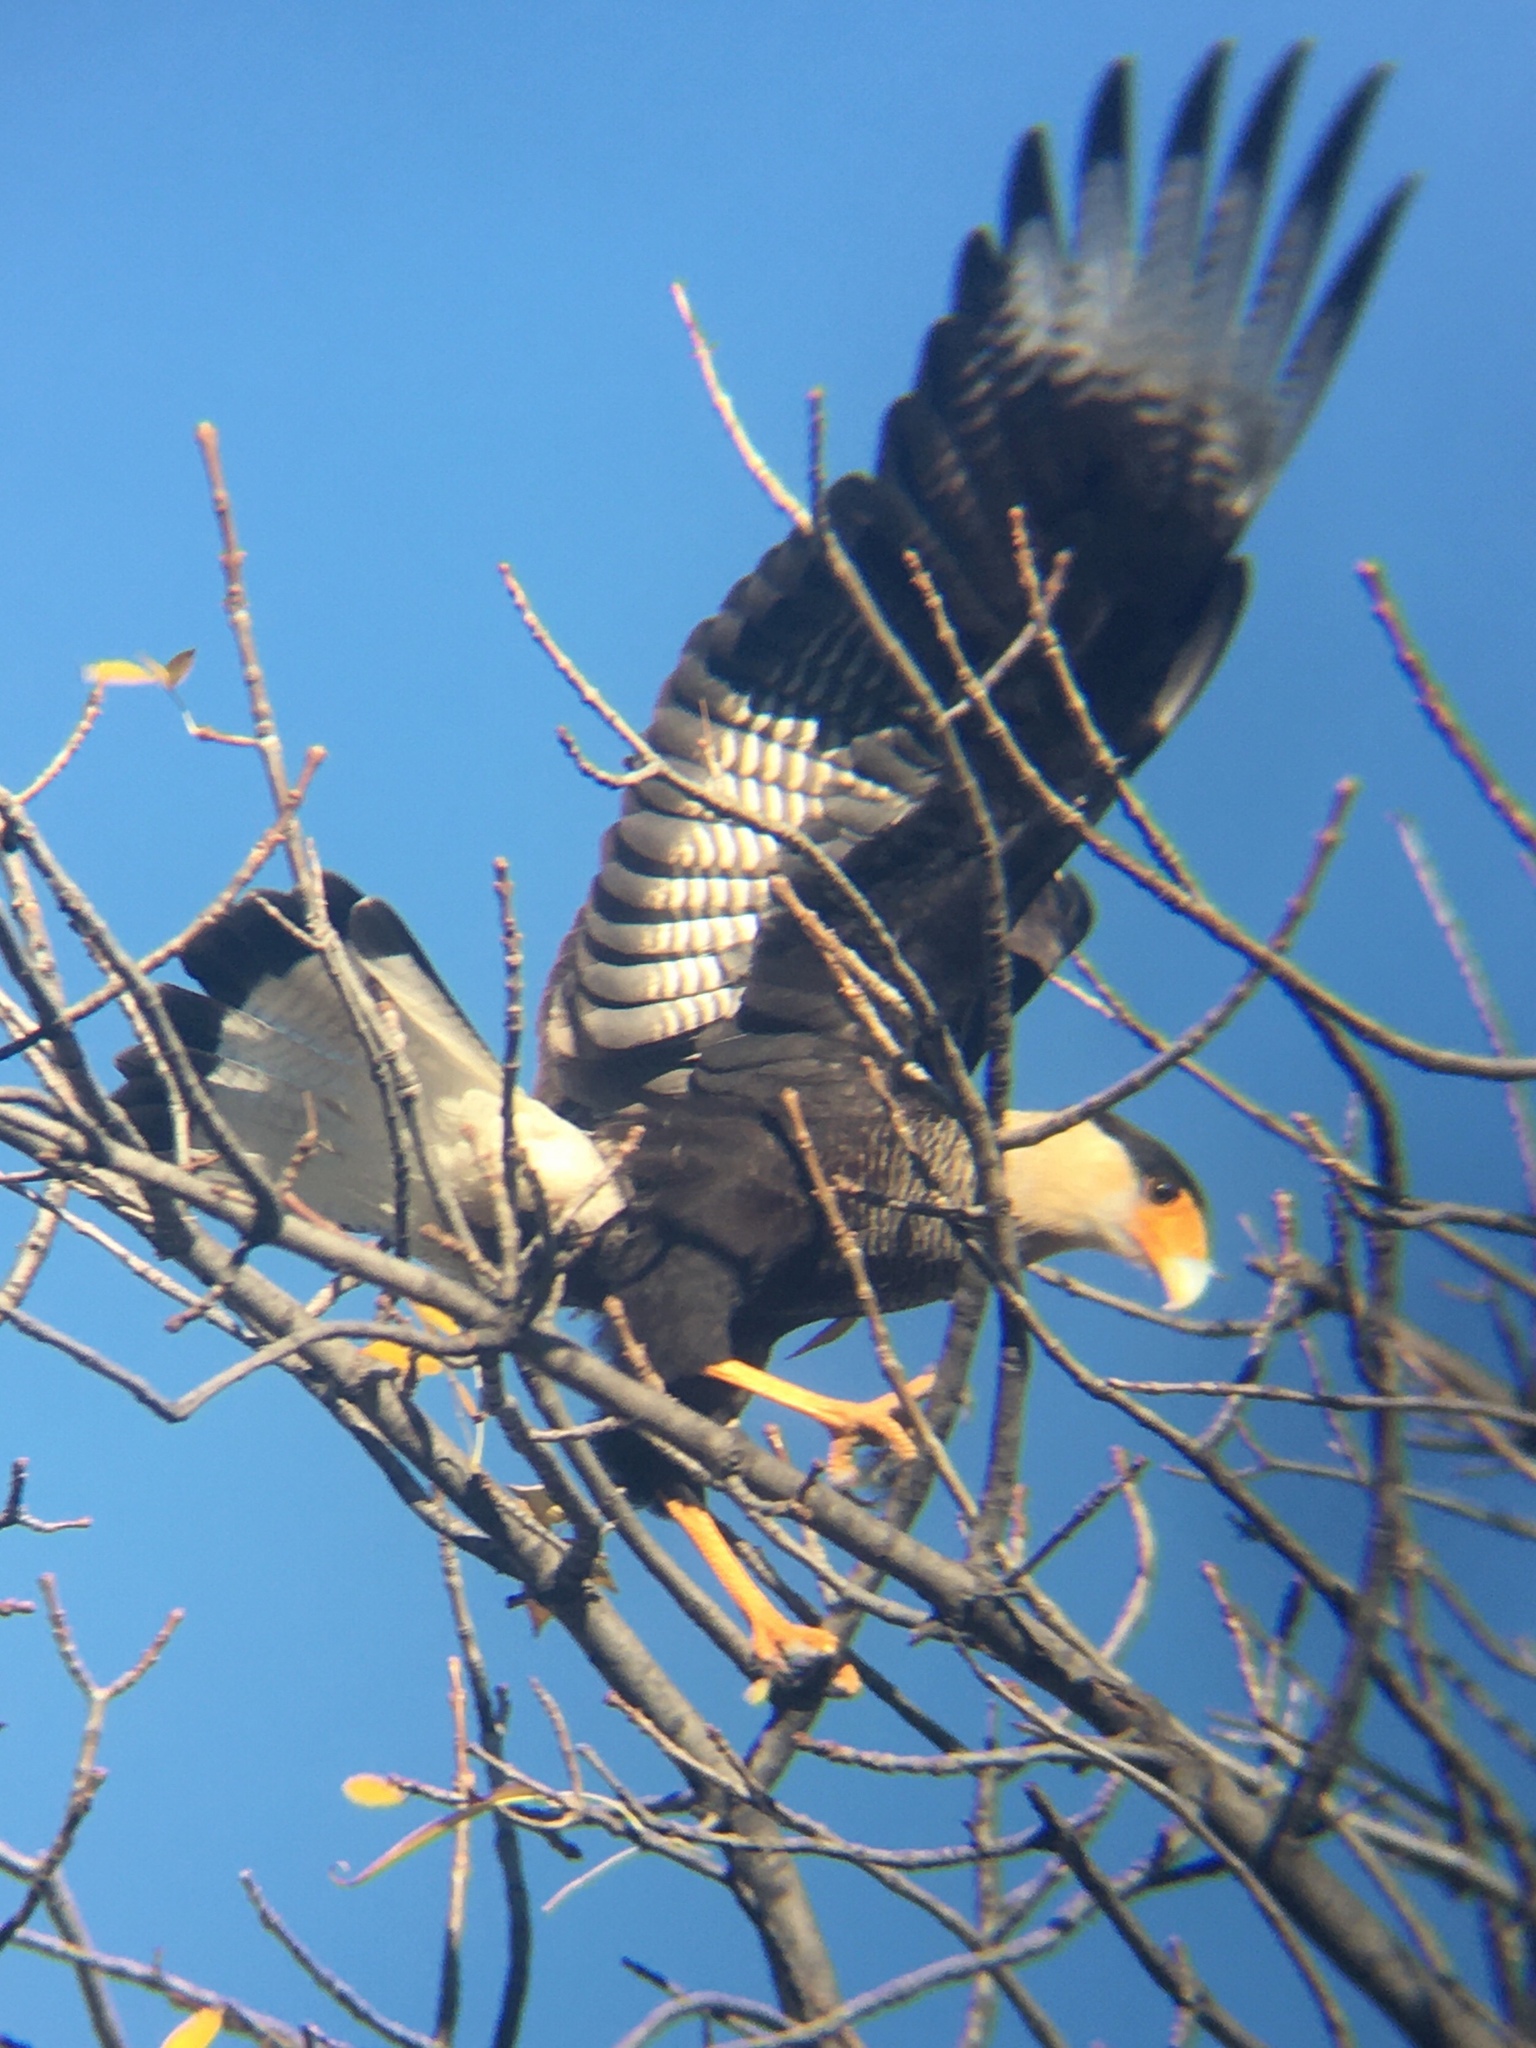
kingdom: Animalia
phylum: Chordata
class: Aves
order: Falconiformes
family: Falconidae
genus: Caracara
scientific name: Caracara plancus
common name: Southern caracara
